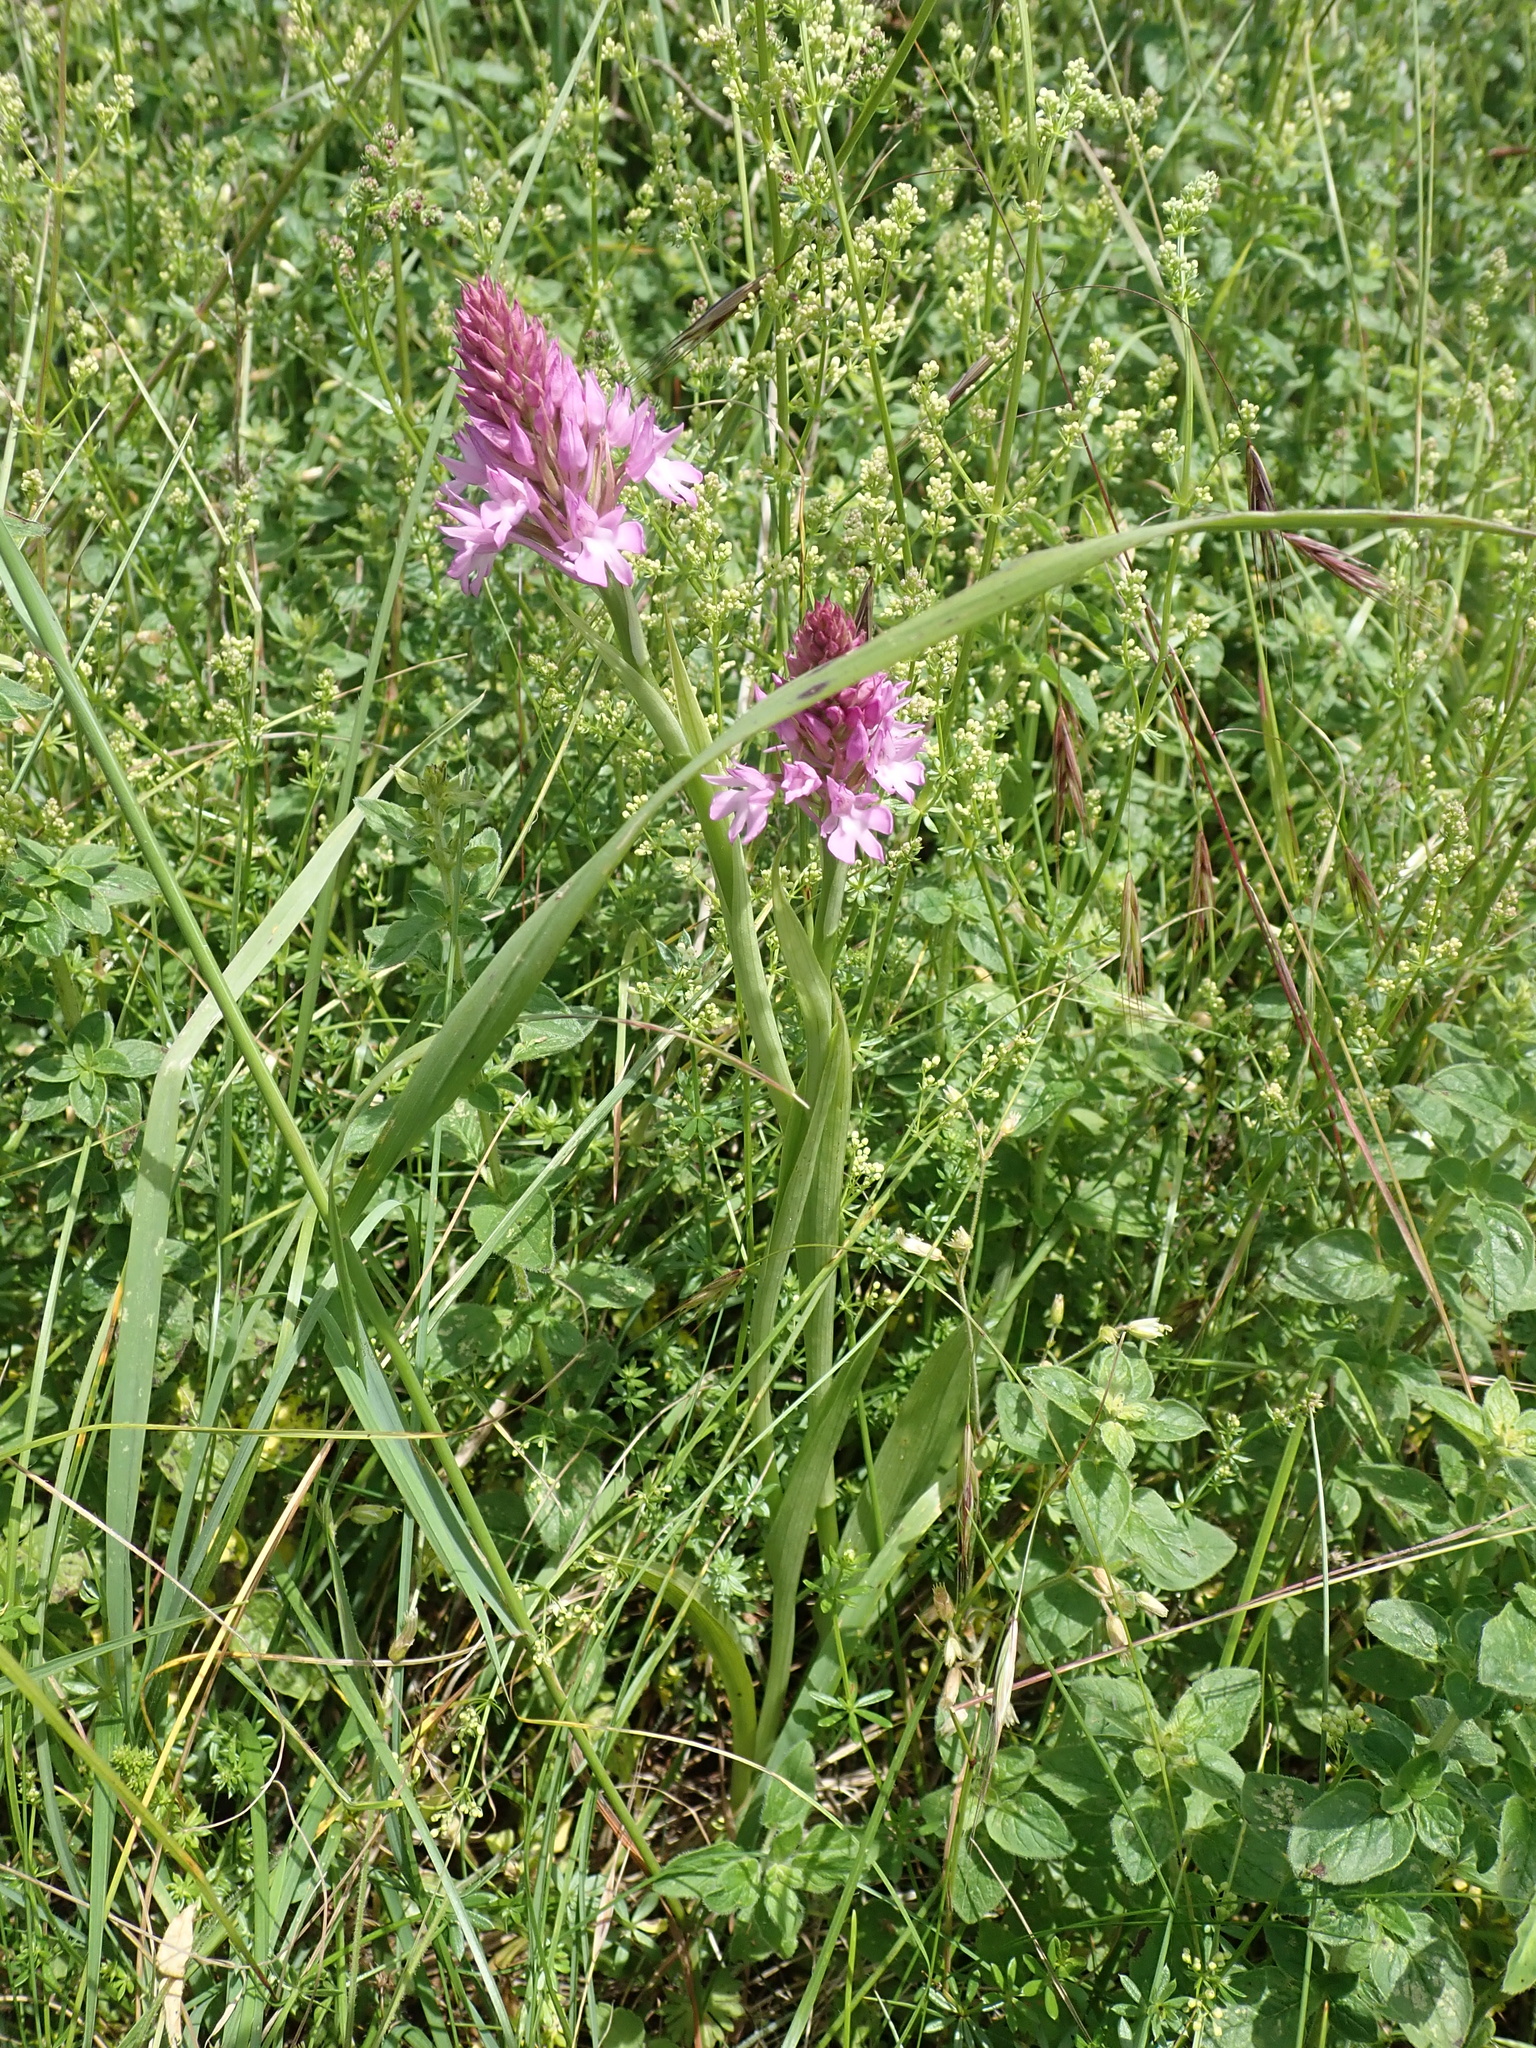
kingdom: Plantae
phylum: Tracheophyta
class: Liliopsida
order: Asparagales
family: Orchidaceae
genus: Anacamptis
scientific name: Anacamptis pyramidalis
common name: Pyramidal orchid
